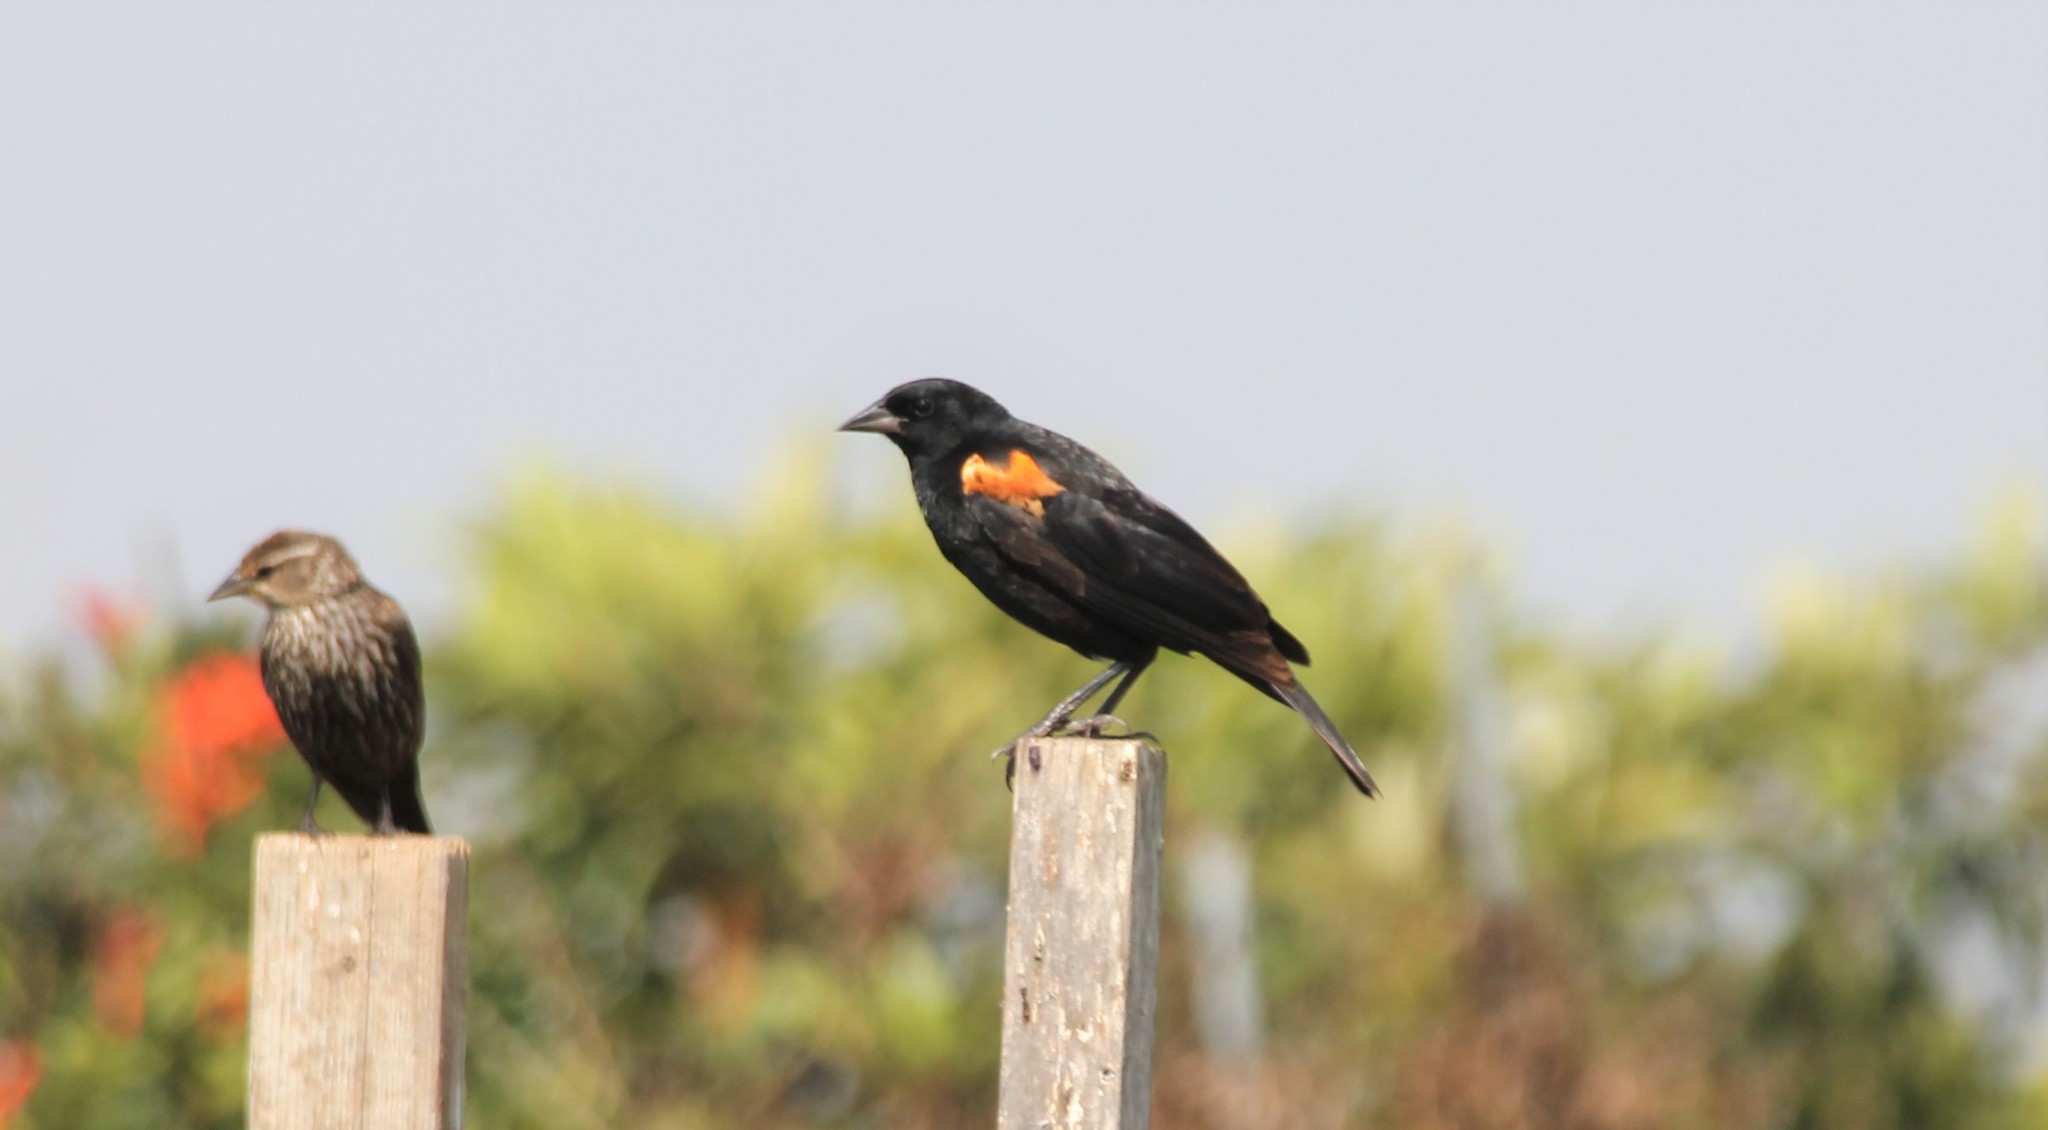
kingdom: Animalia
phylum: Chordata
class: Aves
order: Passeriformes
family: Icteridae
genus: Agelaius
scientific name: Agelaius phoeniceus
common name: Red-winged blackbird
